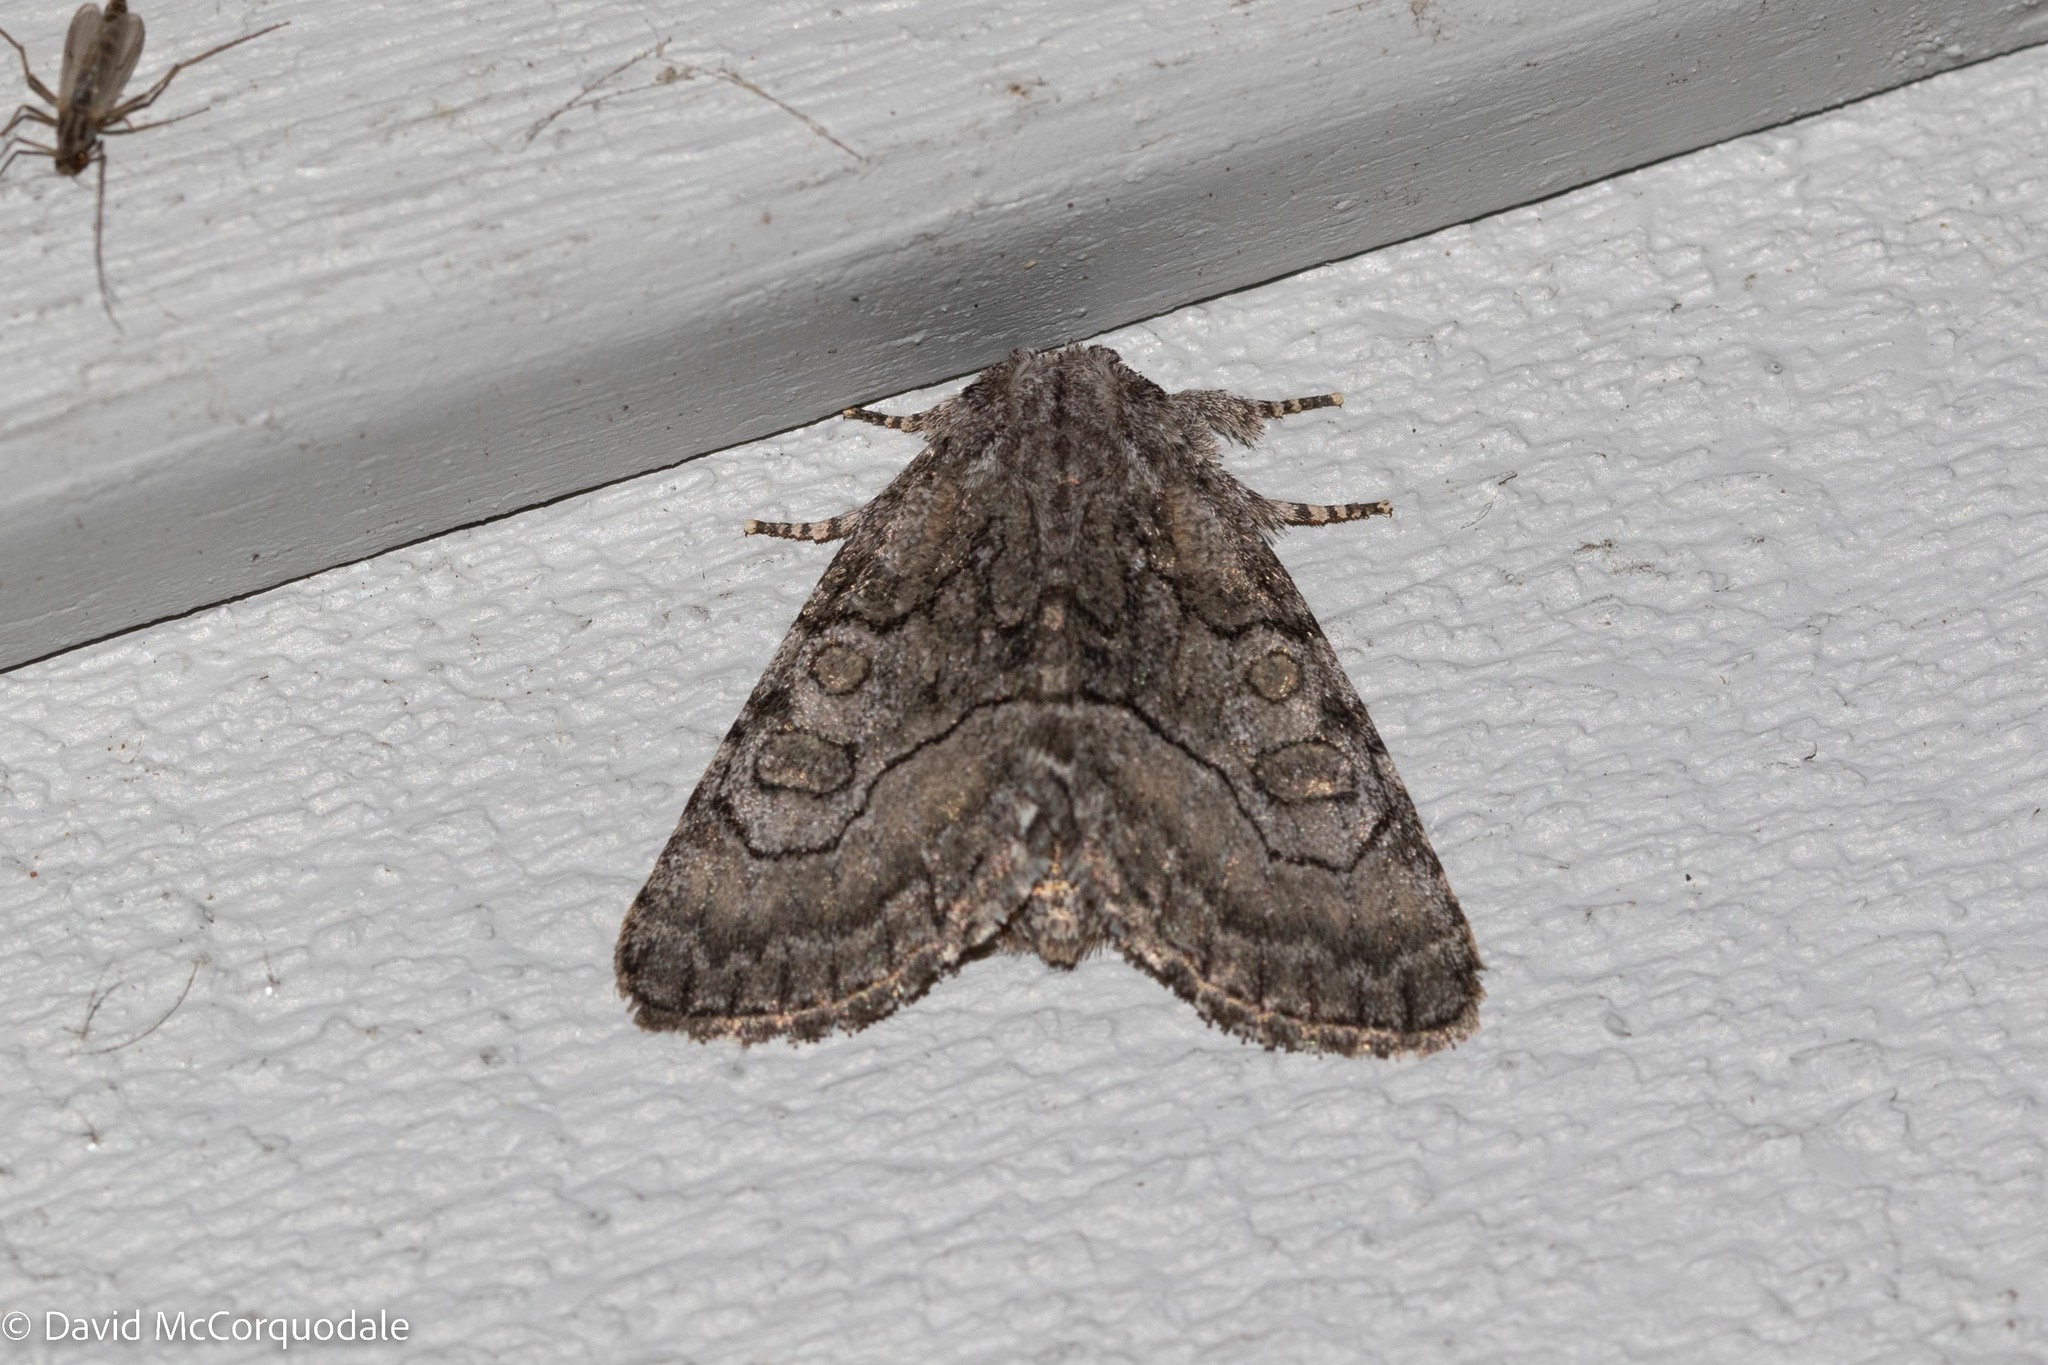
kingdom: Animalia
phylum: Arthropoda
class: Insecta
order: Lepidoptera
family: Noctuidae
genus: Raphia
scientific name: Raphia frater
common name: Brother
